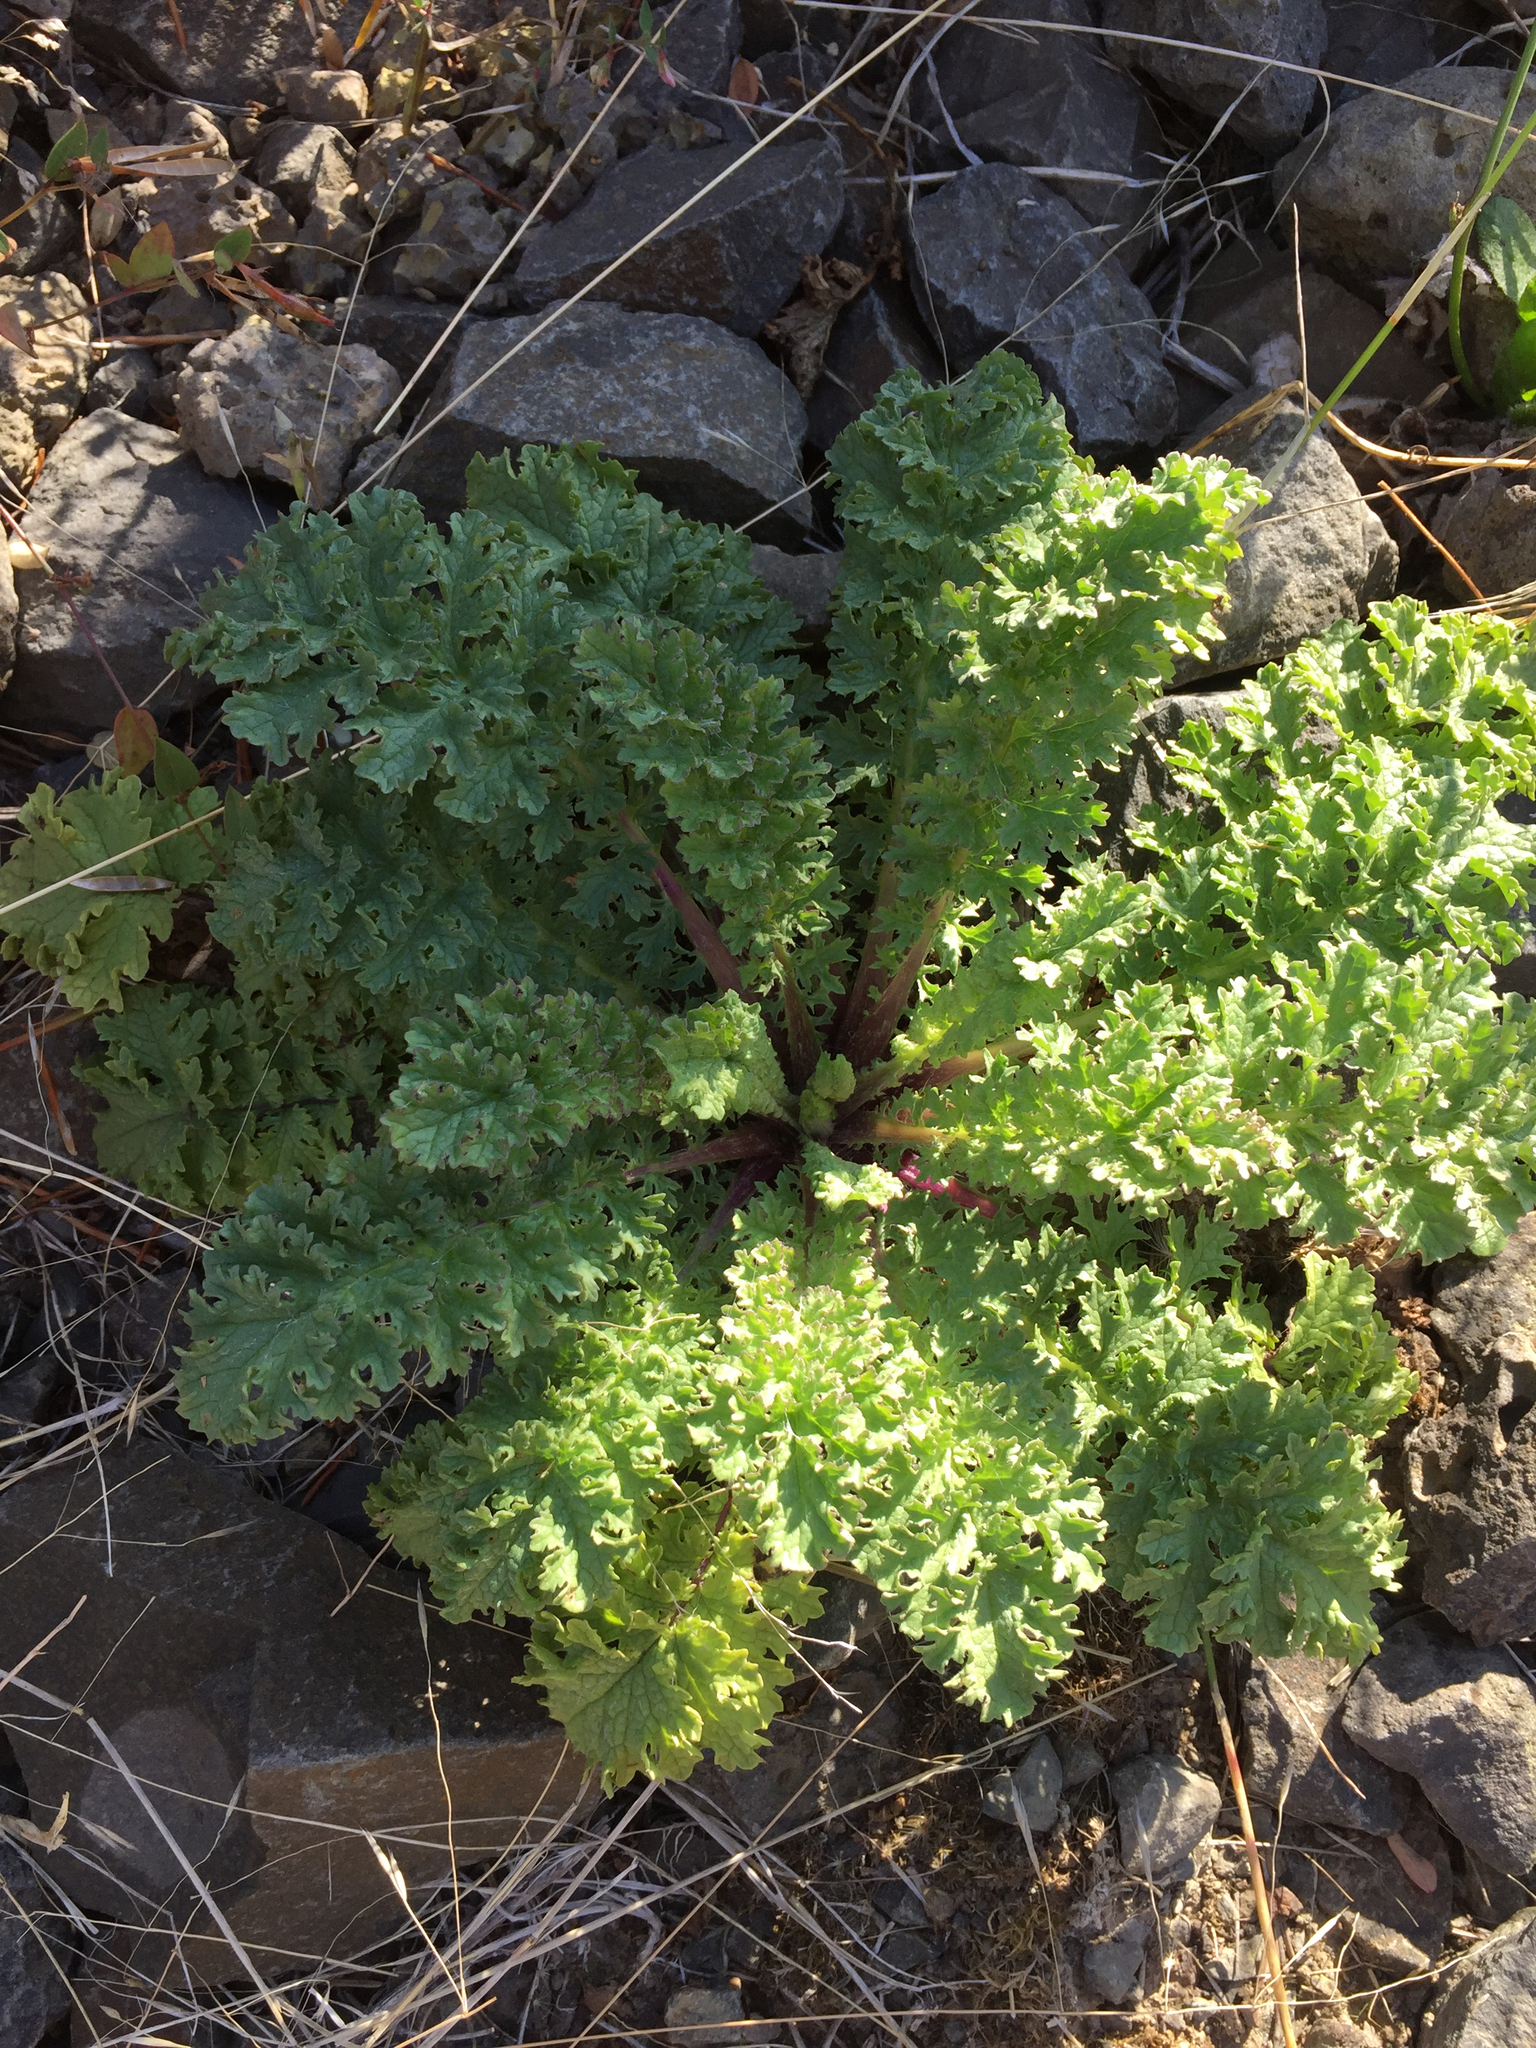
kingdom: Plantae
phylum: Tracheophyta
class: Magnoliopsida
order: Asterales
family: Asteraceae
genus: Jacobaea
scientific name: Jacobaea vulgaris
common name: Stinking willie
